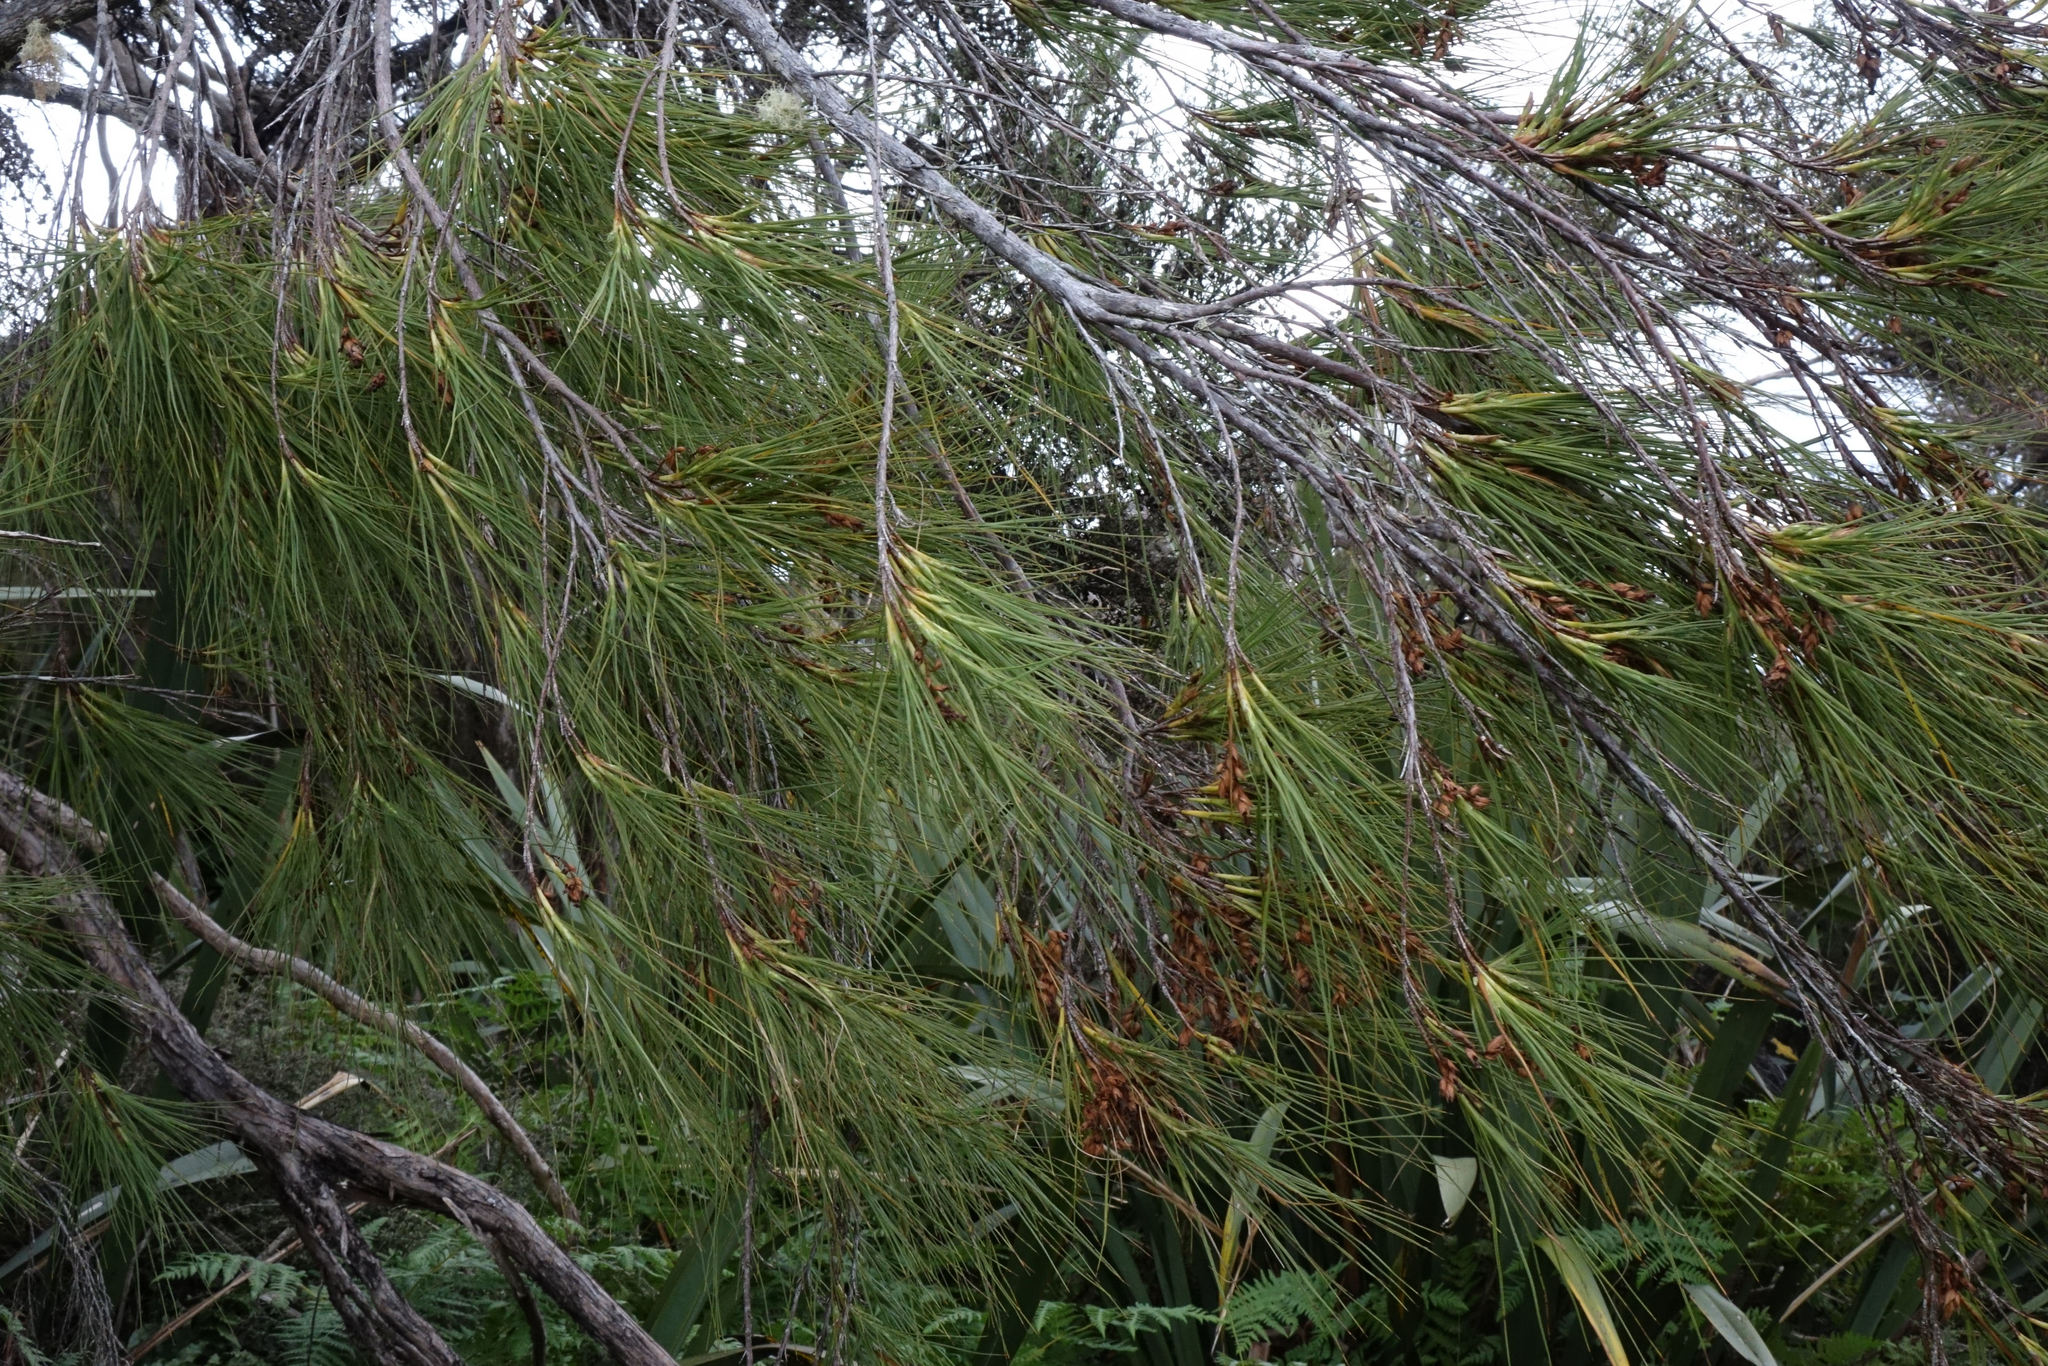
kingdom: Plantae
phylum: Tracheophyta
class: Magnoliopsida
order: Ericales
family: Ericaceae
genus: Dracophyllum
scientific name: Dracophyllum longifolium
